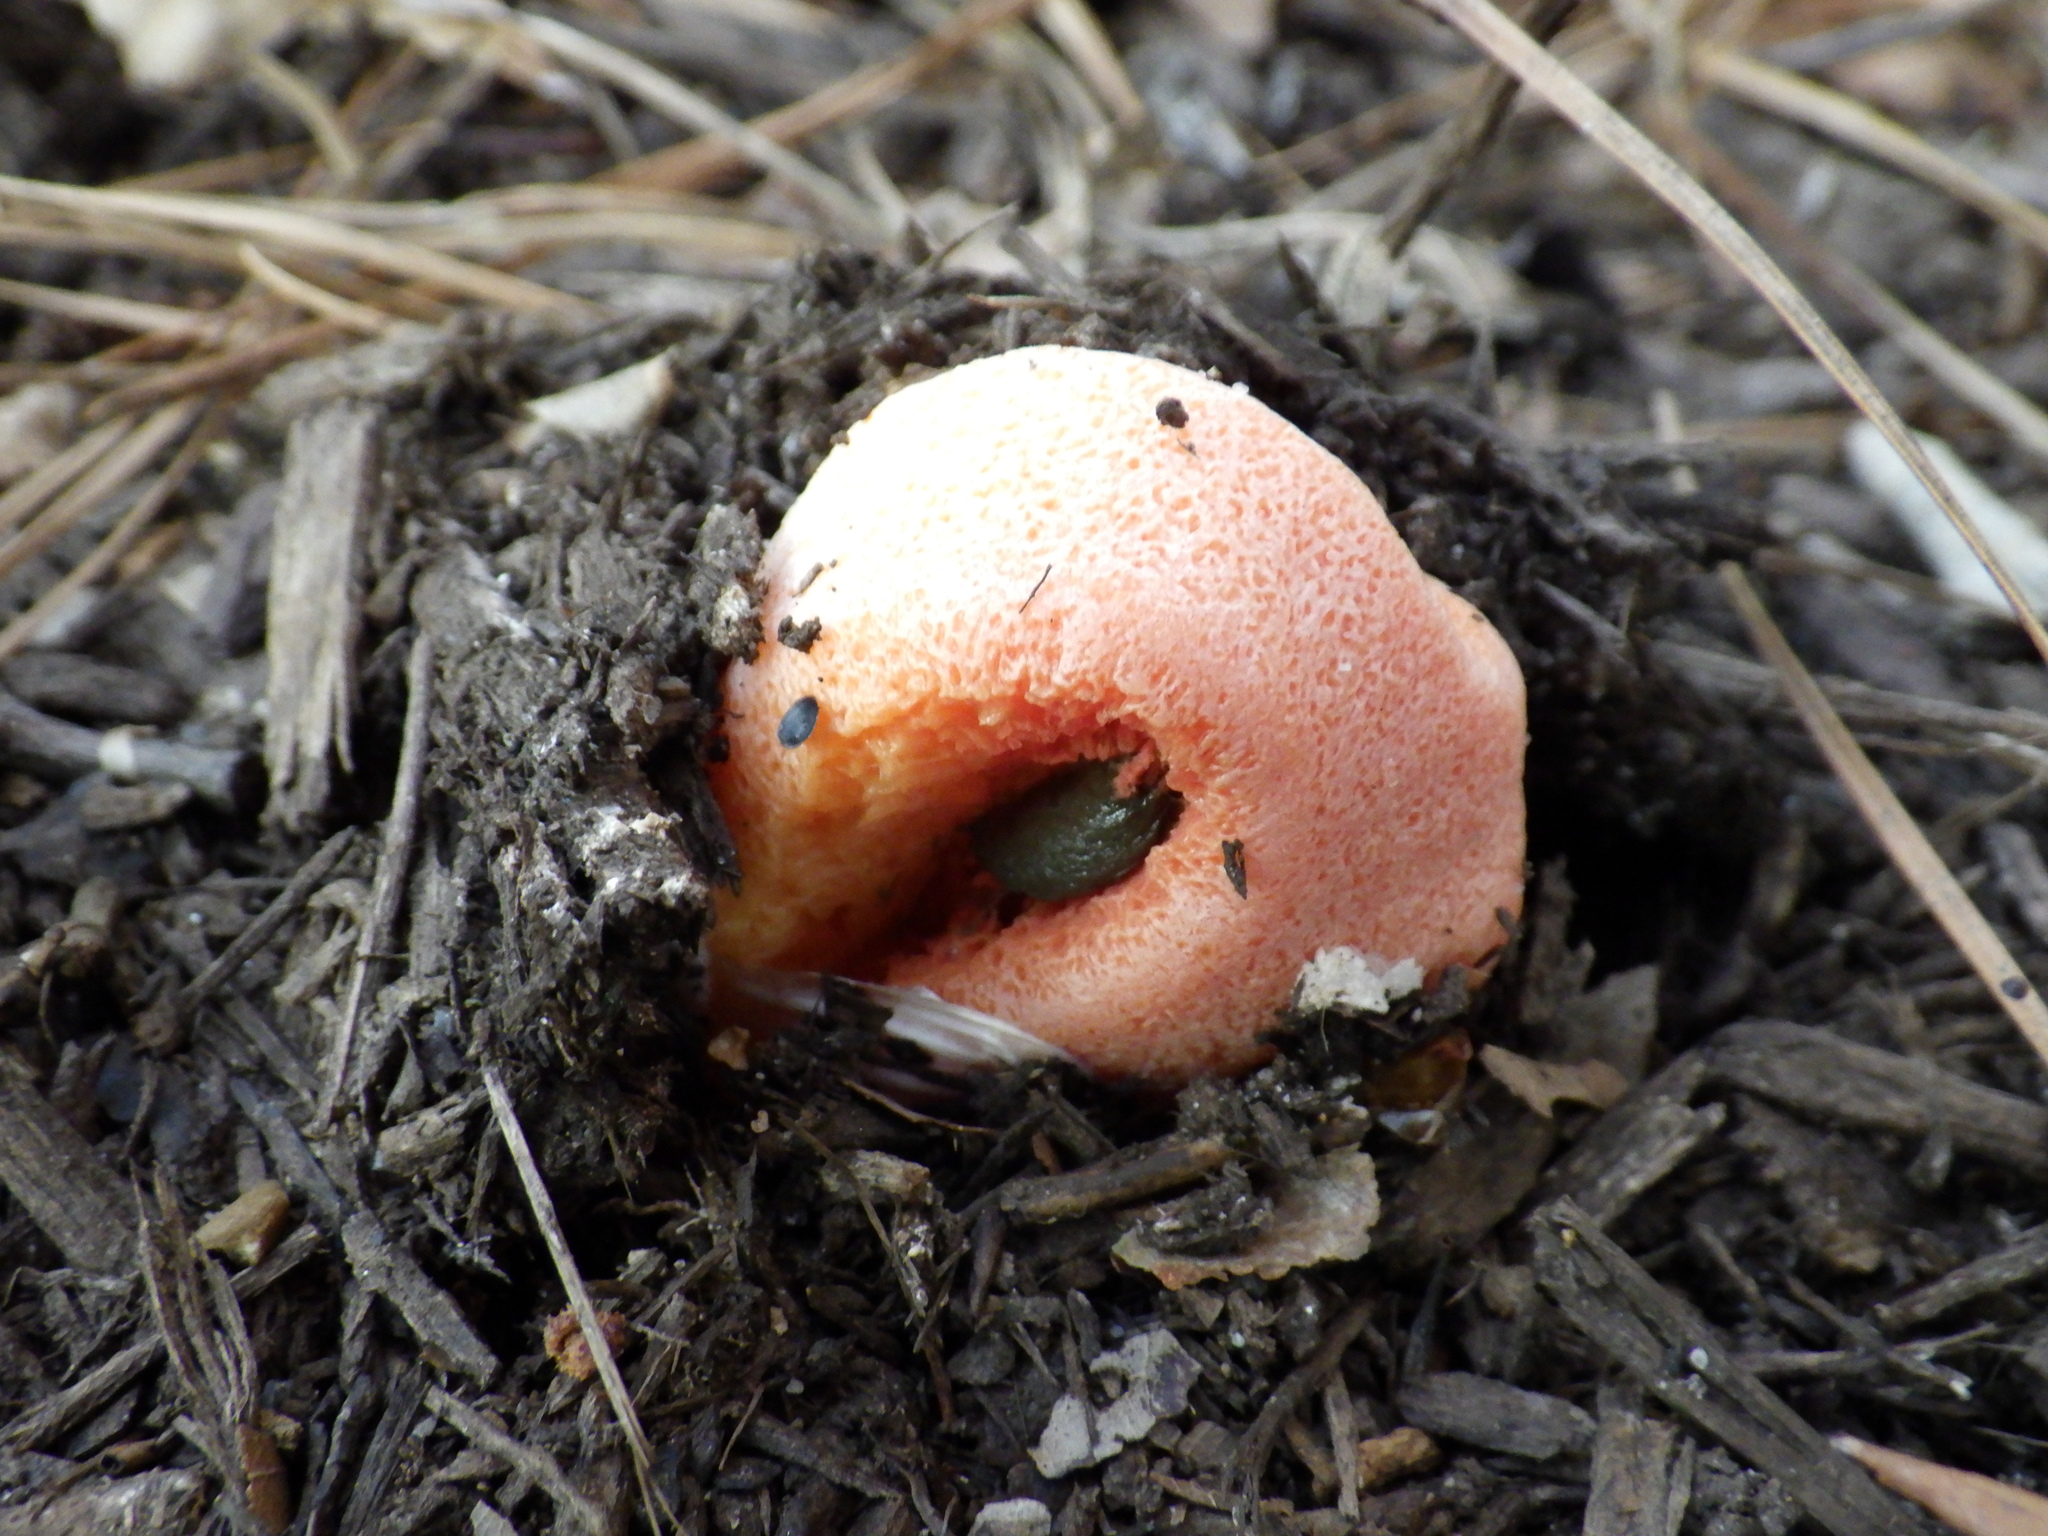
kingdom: Fungi
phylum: Basidiomycota
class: Agaricomycetes
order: Phallales
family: Phallaceae
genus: Clathrus
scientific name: Clathrus columnatus
